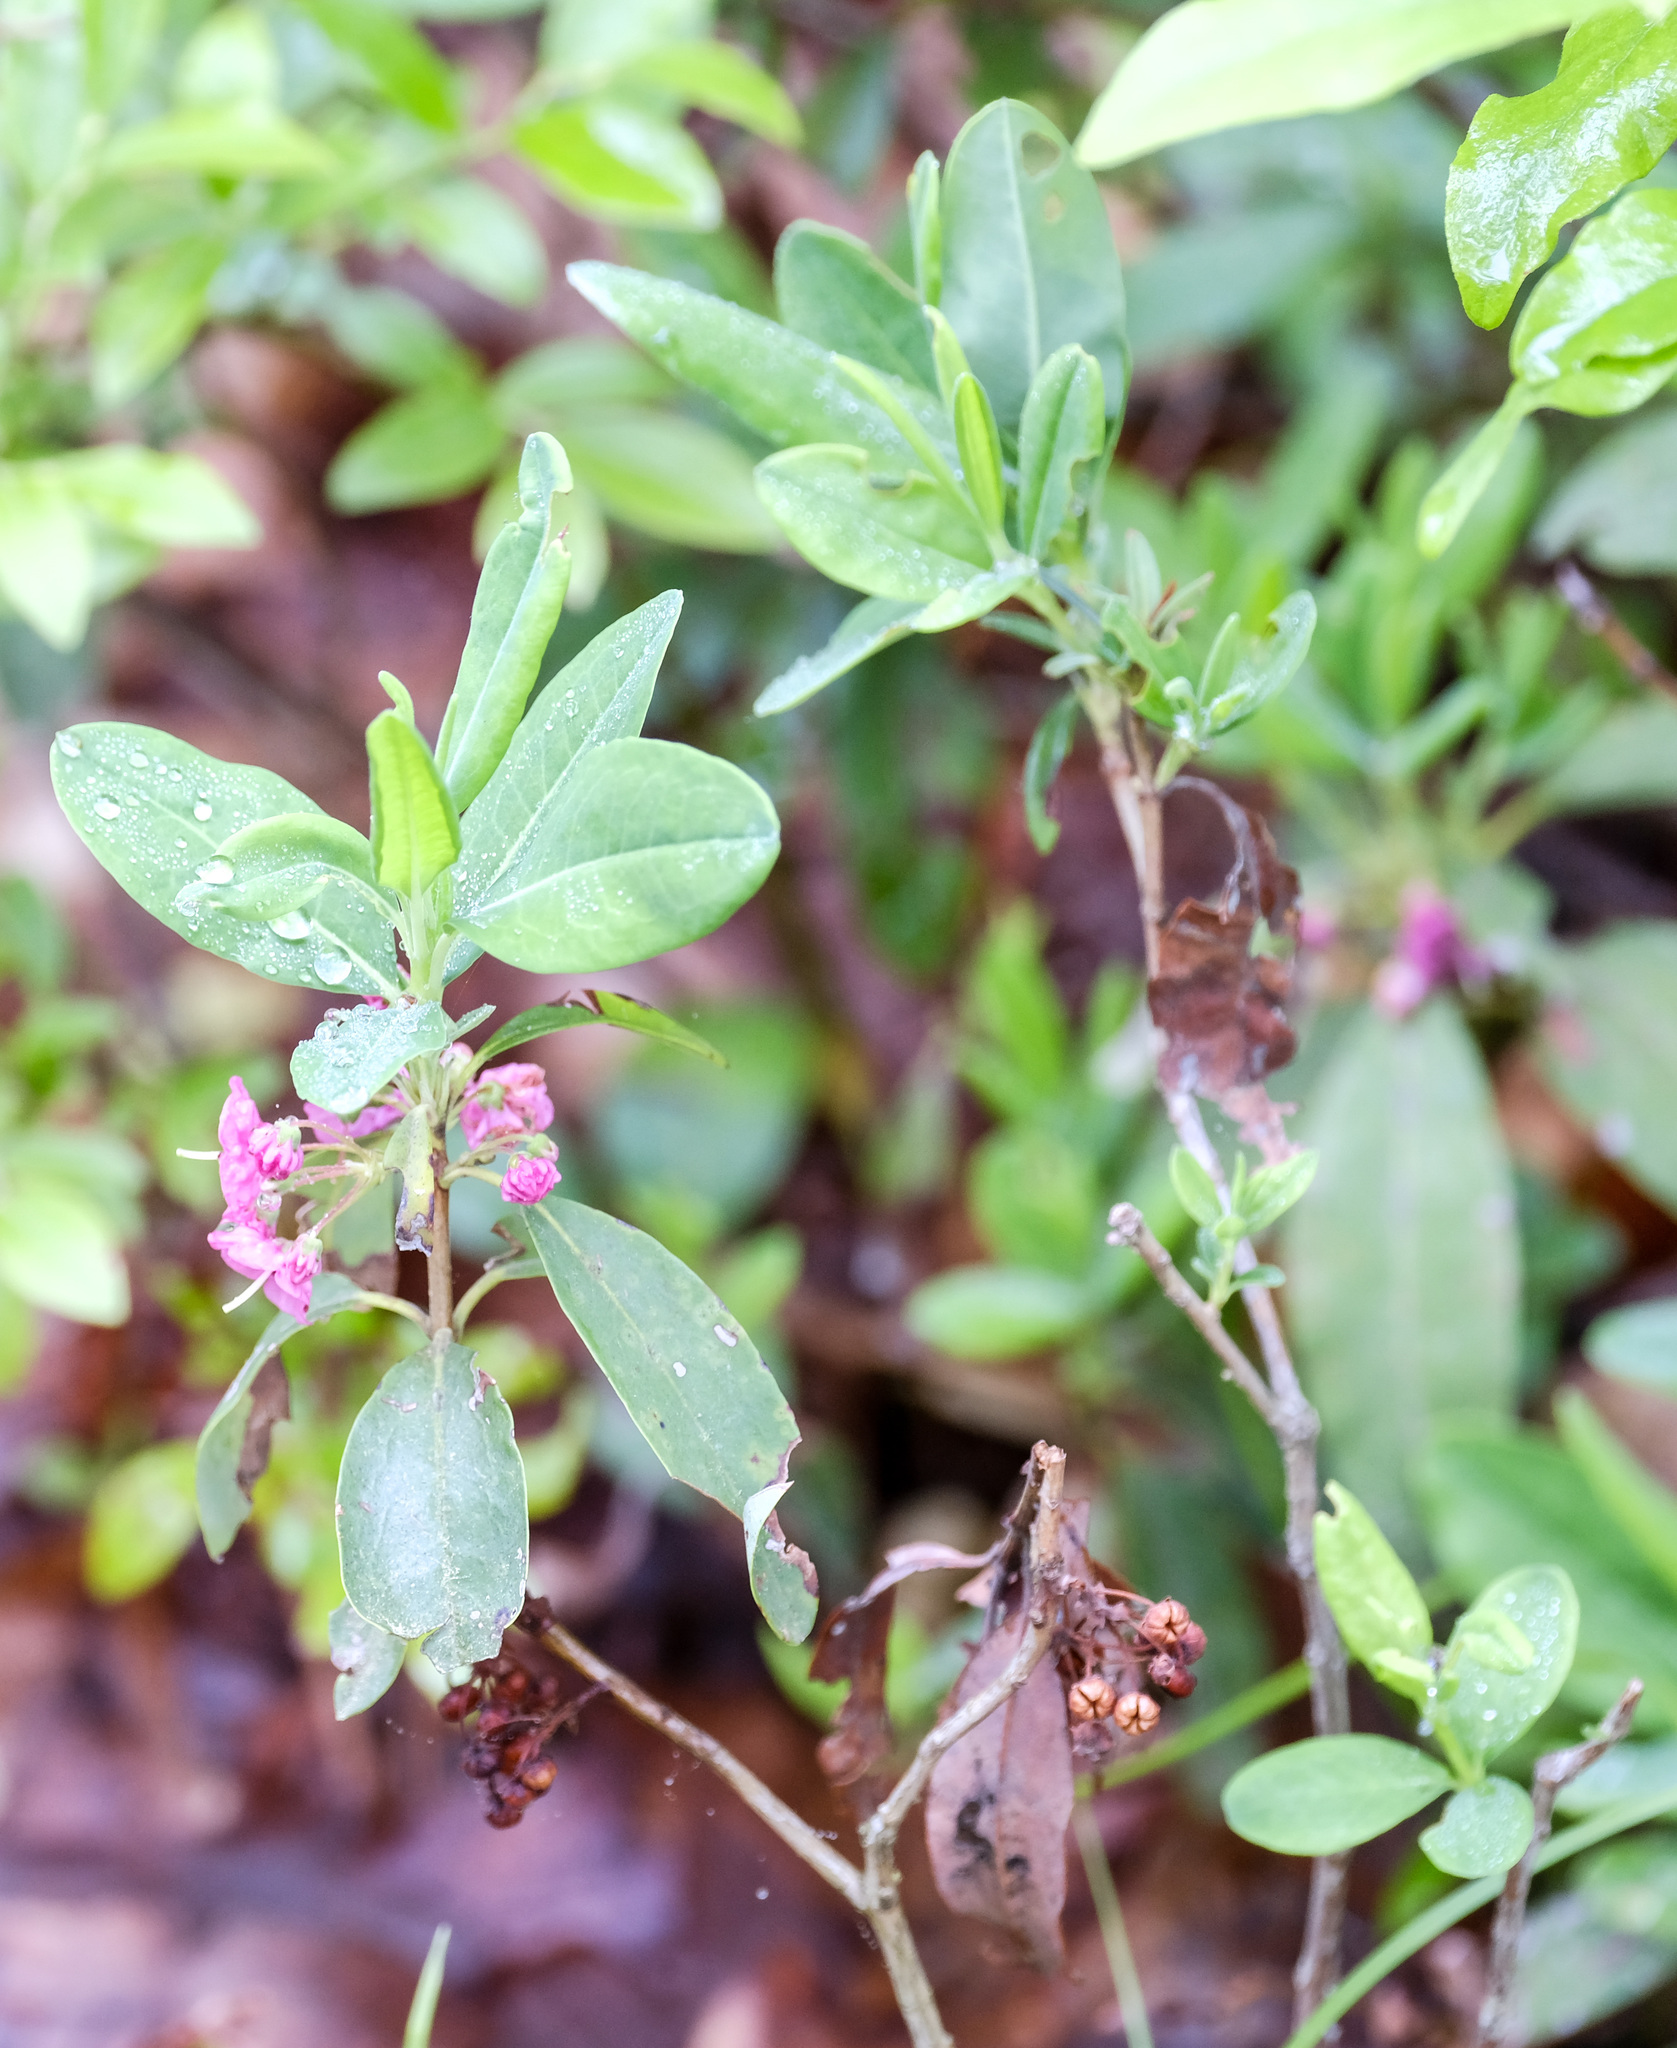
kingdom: Plantae
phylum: Tracheophyta
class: Magnoliopsida
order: Ericales
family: Ericaceae
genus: Kalmia
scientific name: Kalmia angustifolia
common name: Sheep-laurel
